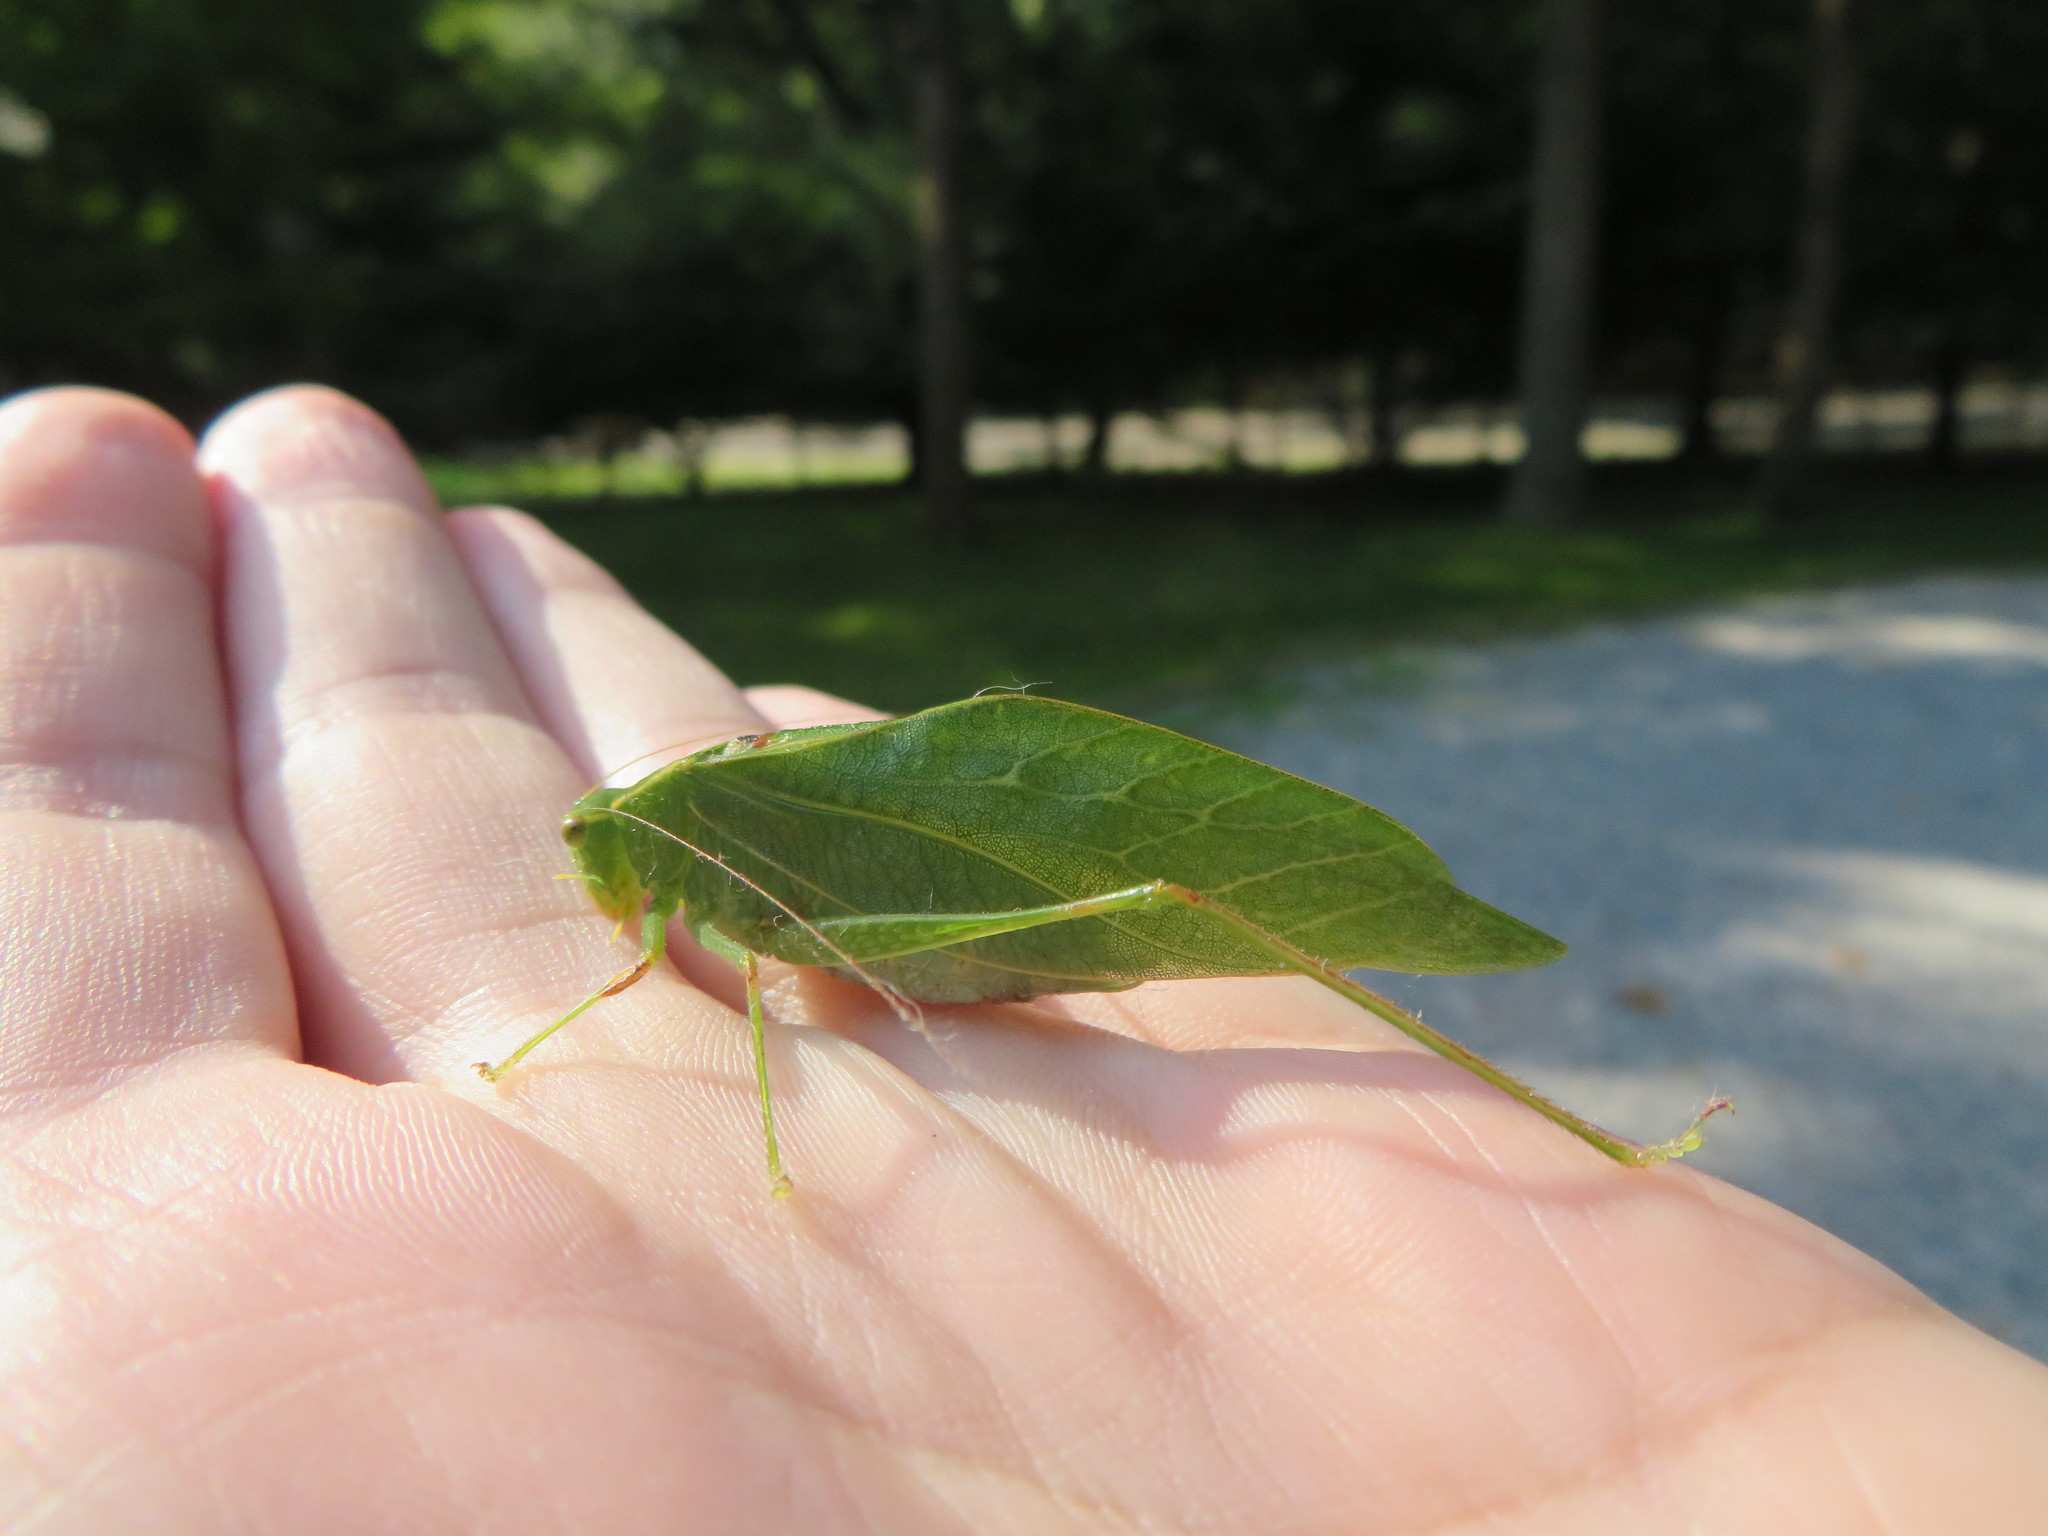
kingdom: Animalia
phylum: Arthropoda
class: Insecta
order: Orthoptera
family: Tettigoniidae
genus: Microcentrum
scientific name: Microcentrum retinerve
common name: Angular-winged katydid
